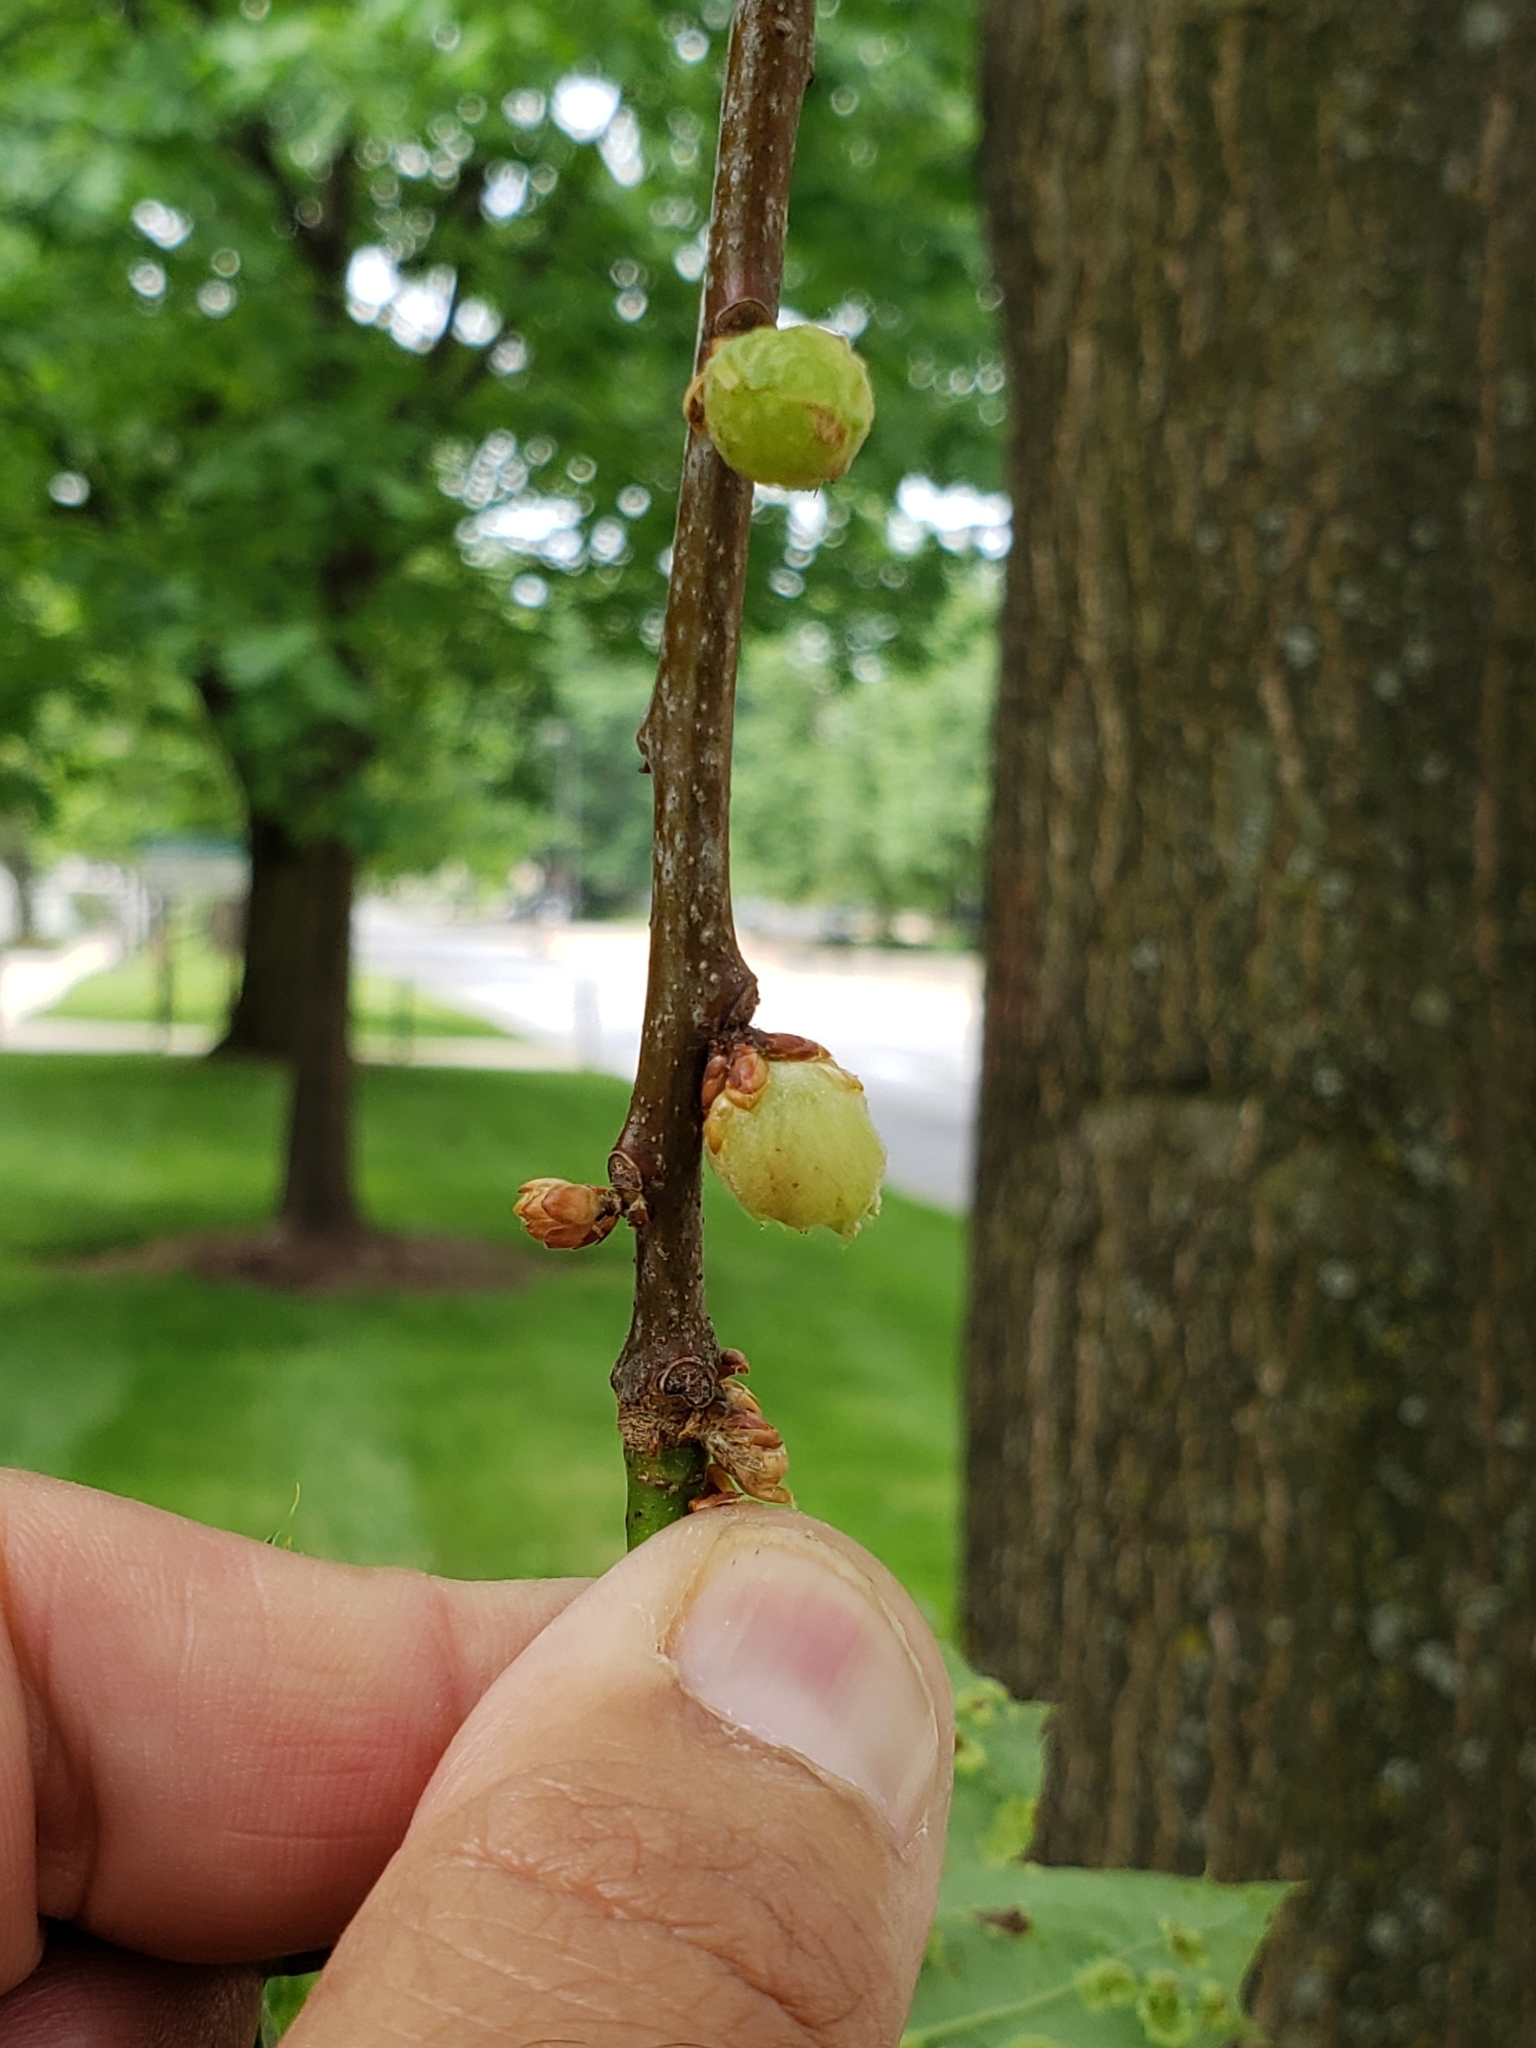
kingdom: Animalia
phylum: Arthropoda
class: Insecta
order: Hymenoptera
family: Cynipidae
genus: Dryocosmus
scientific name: Dryocosmus quercuspalustris
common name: Succulent oak gall wasp
